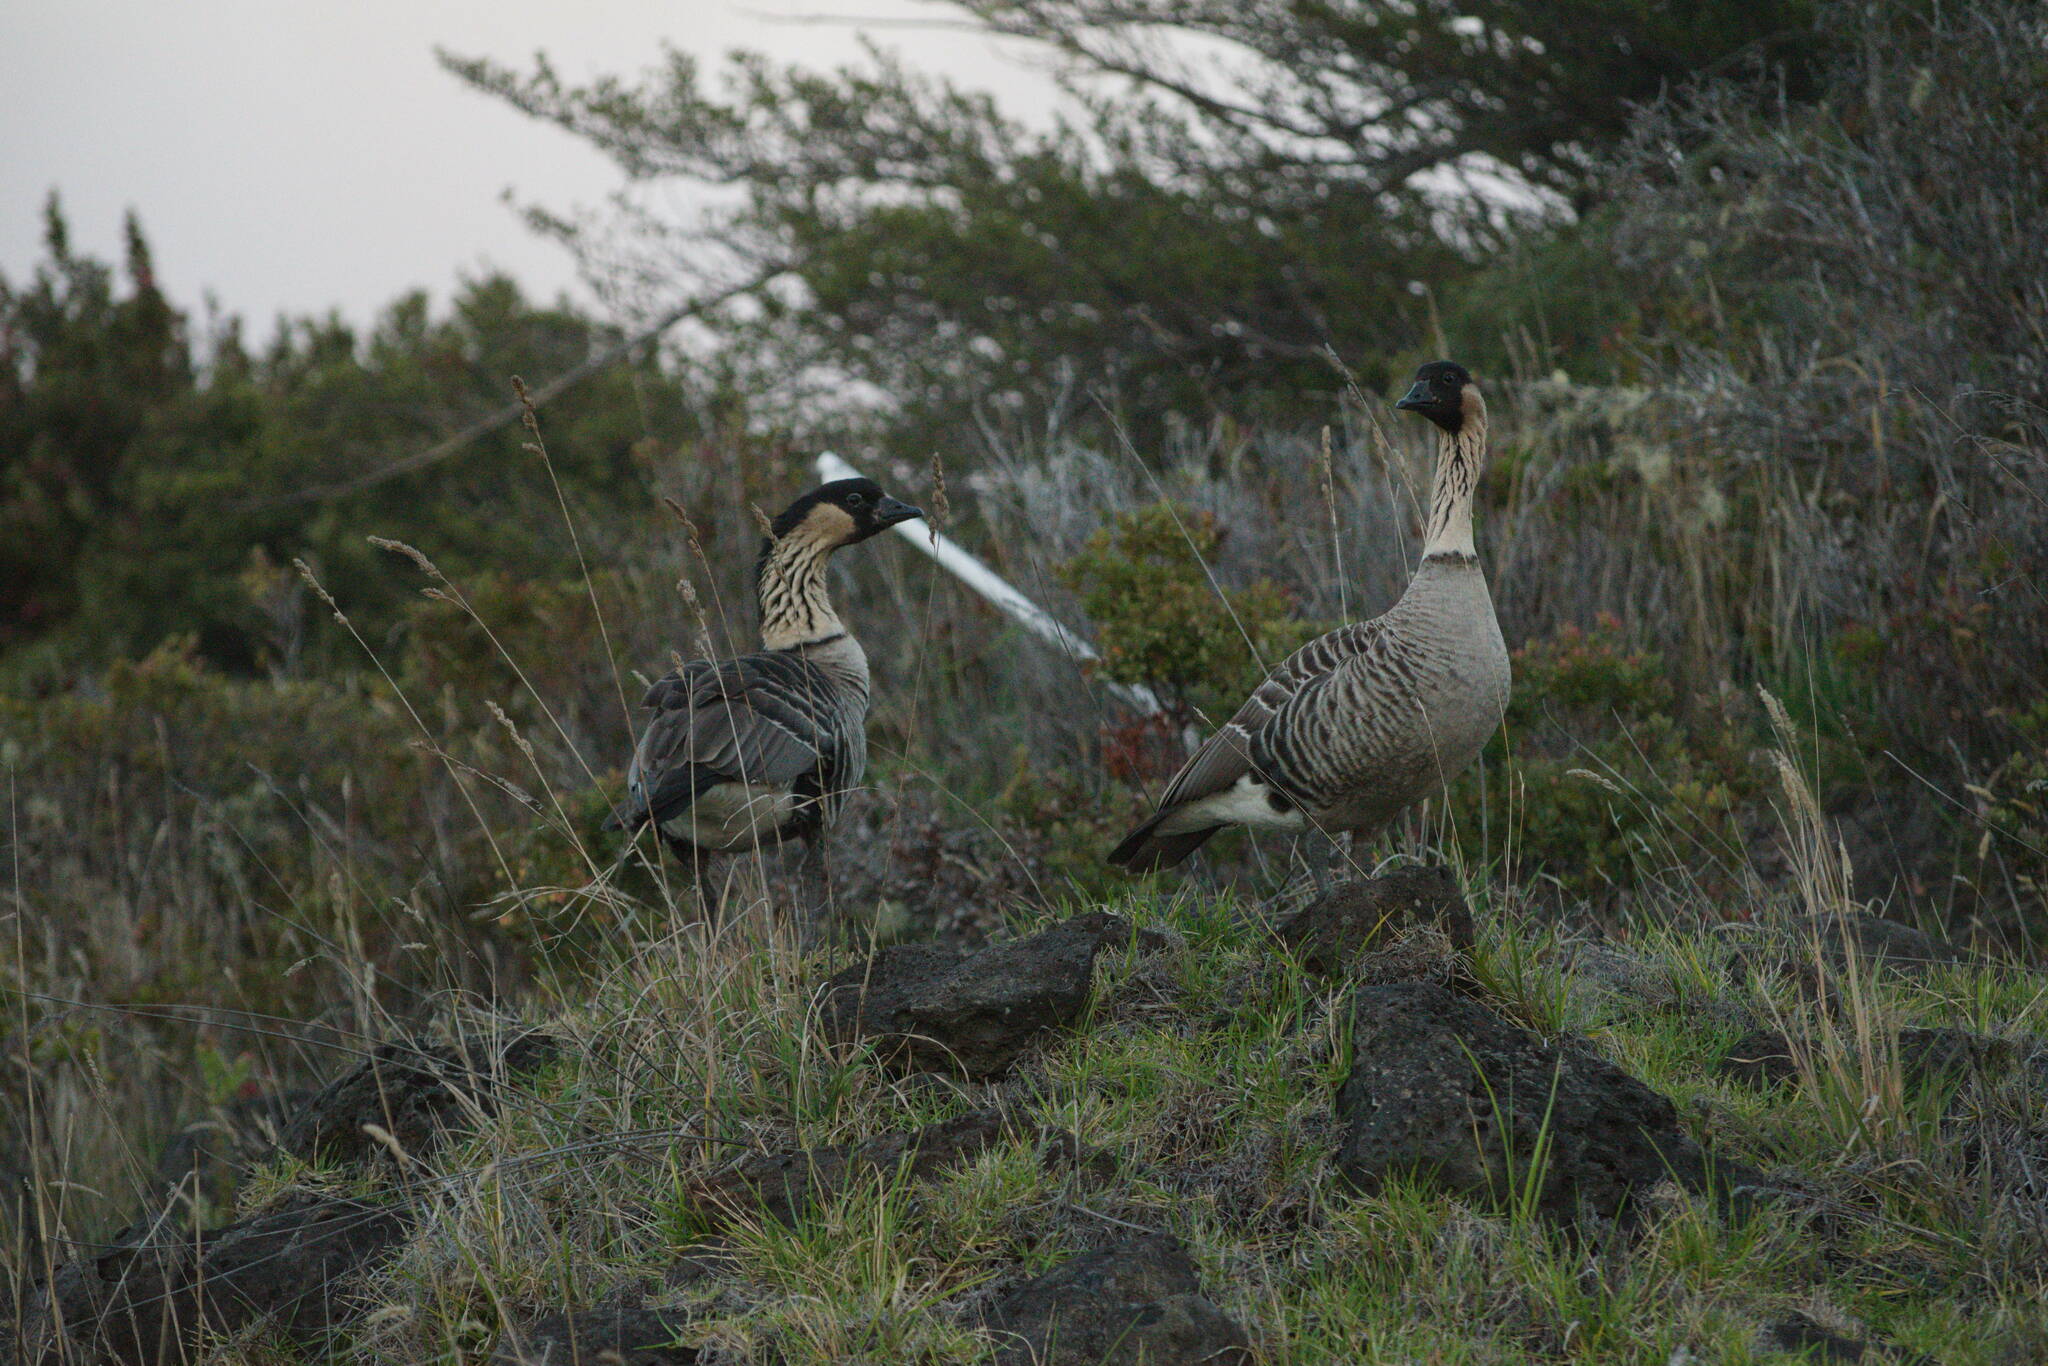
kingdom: Animalia
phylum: Chordata
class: Aves
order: Anseriformes
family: Anatidae
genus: Branta
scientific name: Branta sandvicensis
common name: Nene
